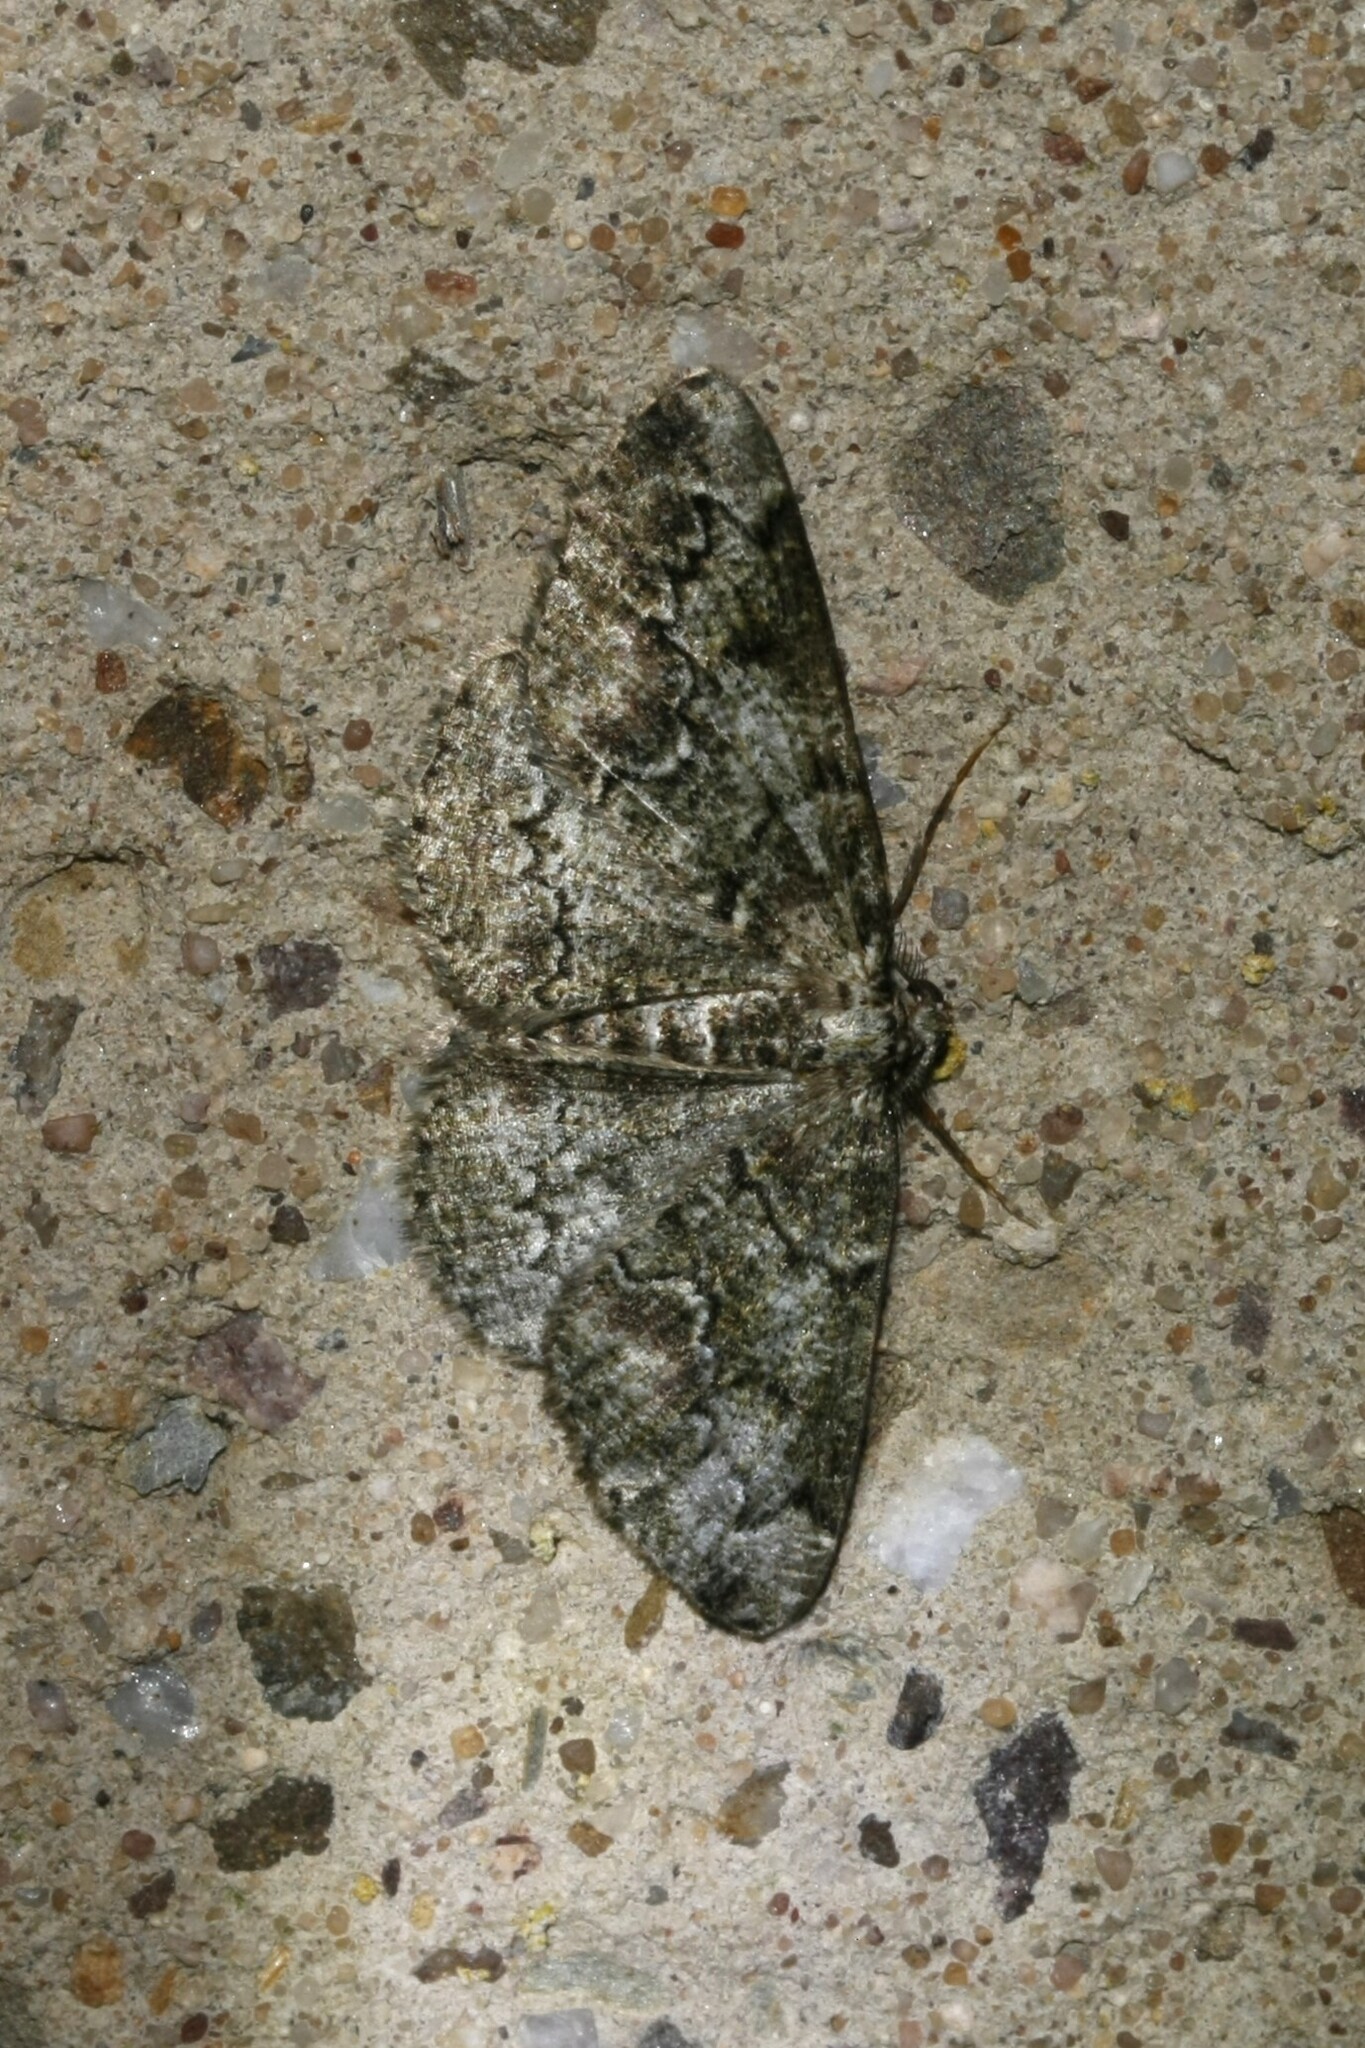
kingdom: Animalia
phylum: Arthropoda
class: Insecta
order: Lepidoptera
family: Geometridae
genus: Cleorodes
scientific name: Cleorodes lichenaria
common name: Brussels lace
